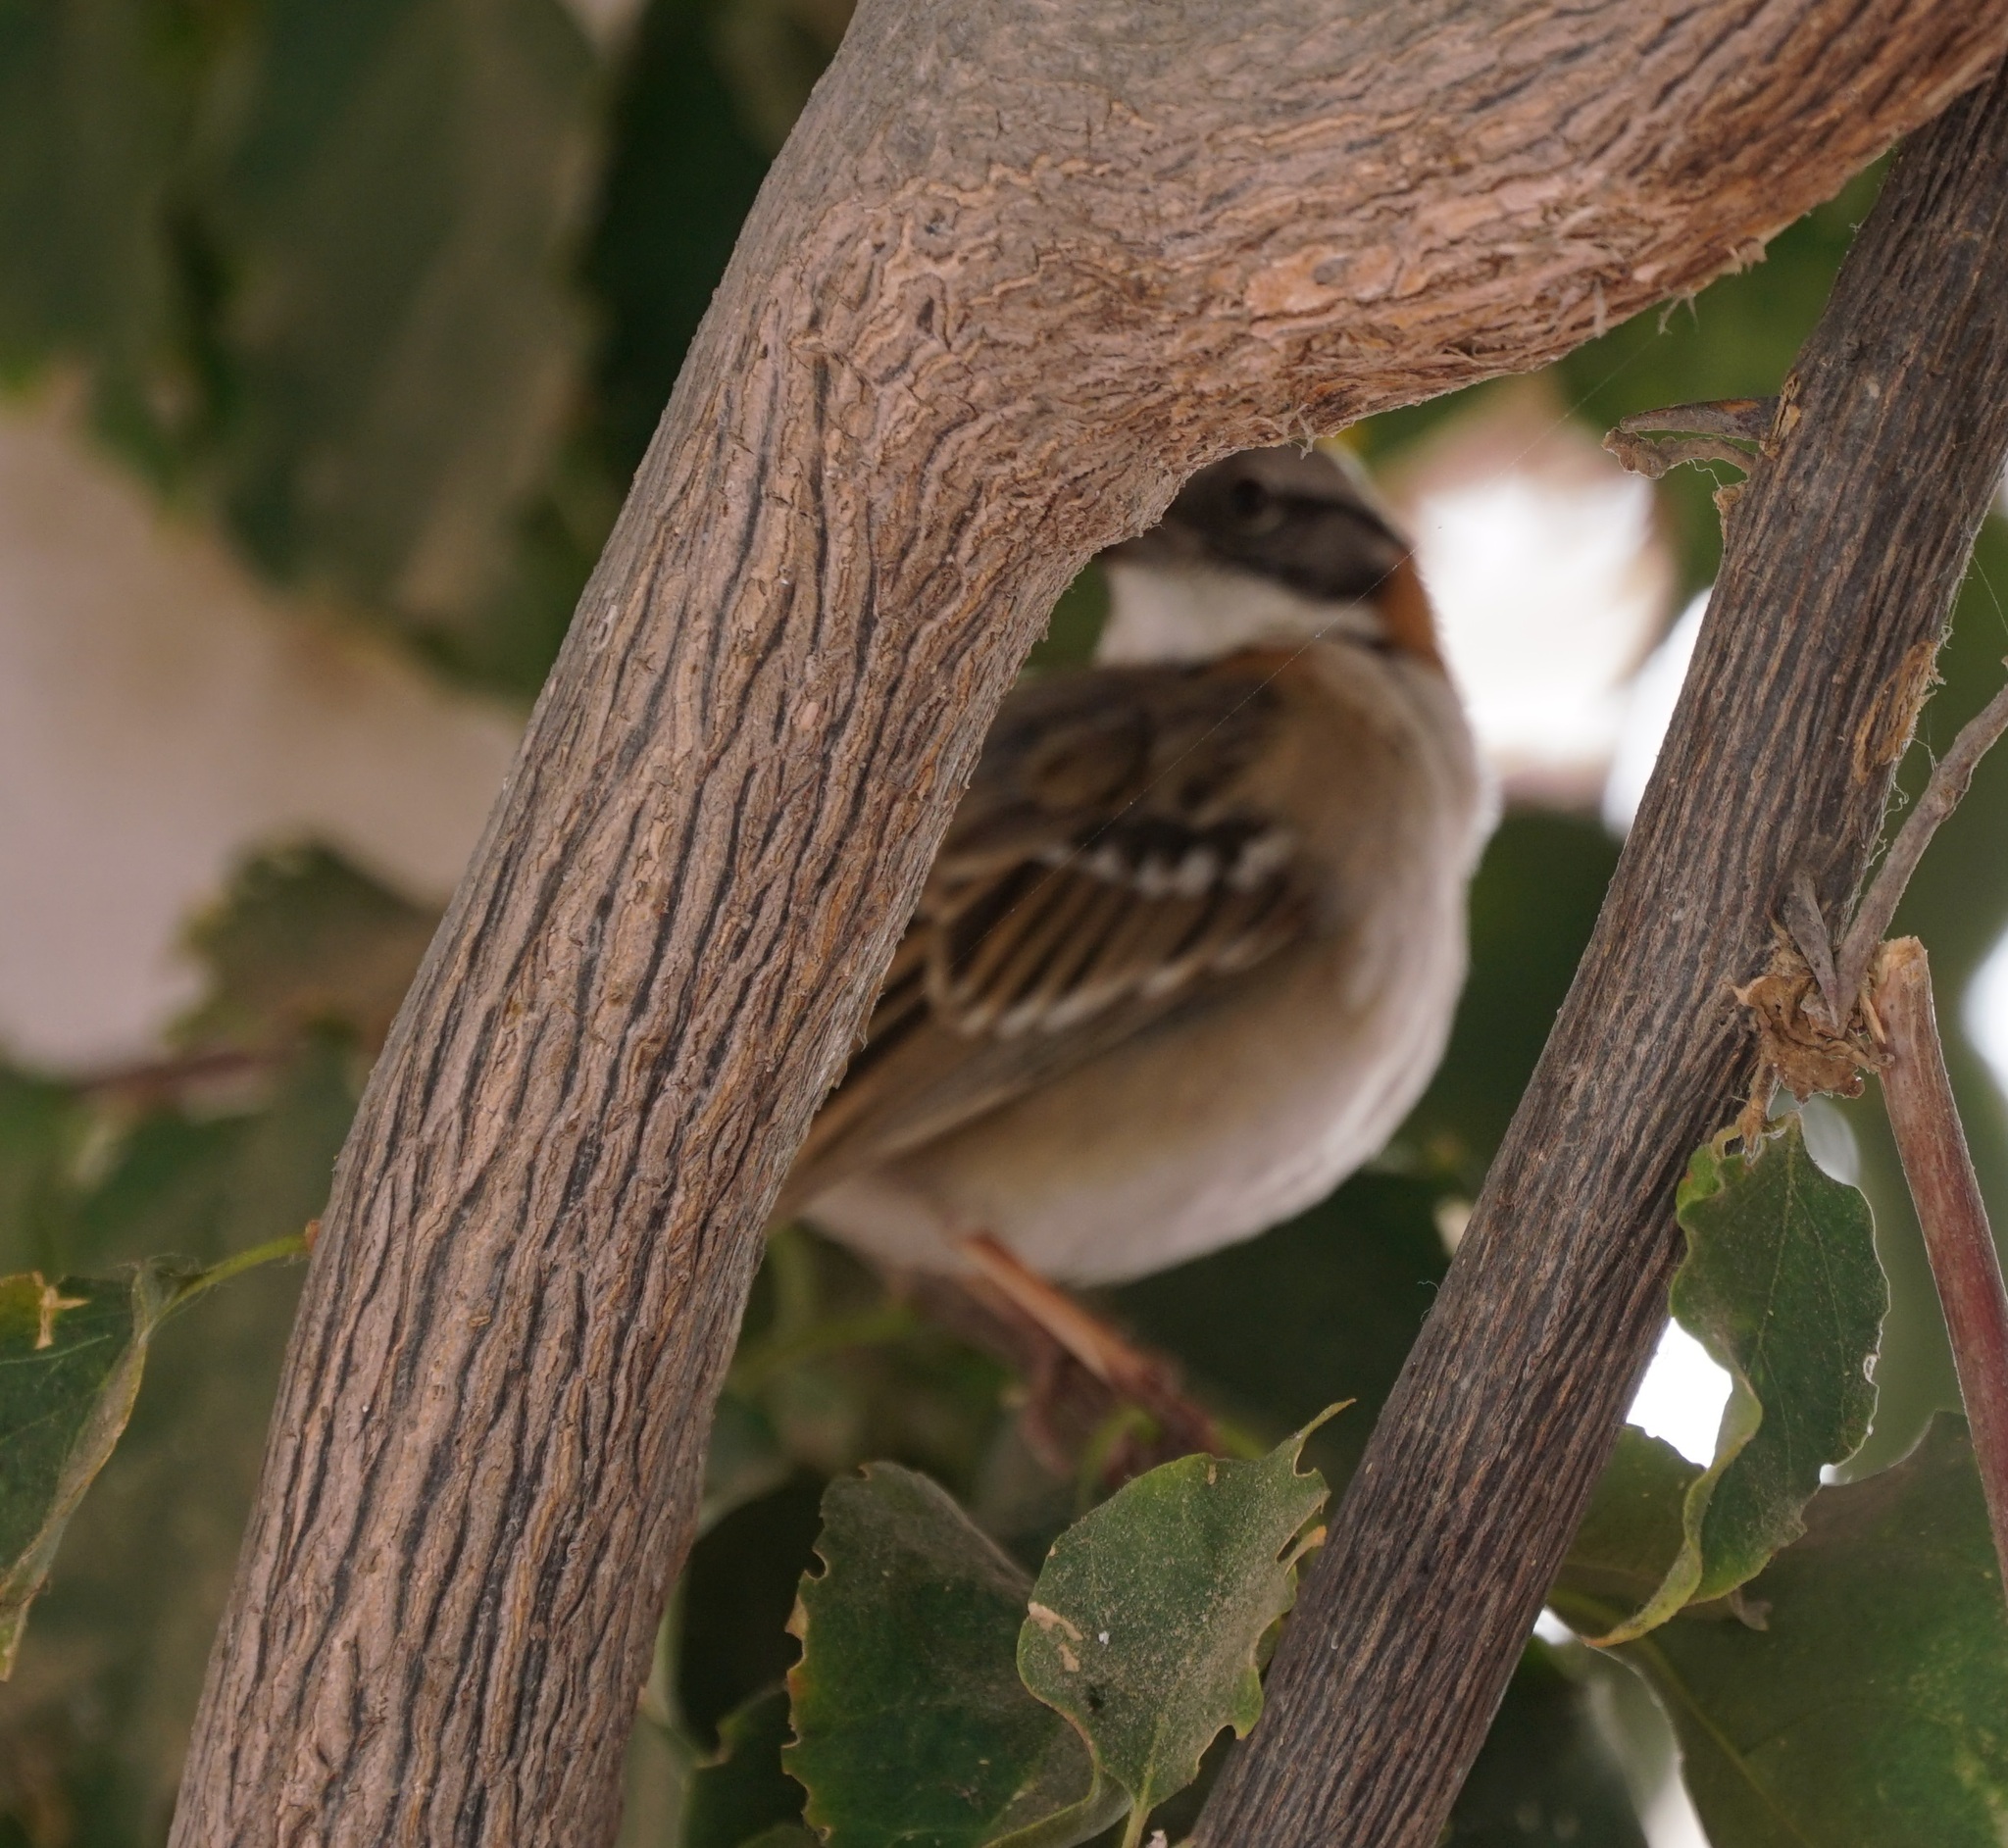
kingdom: Animalia
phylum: Chordata
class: Aves
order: Passeriformes
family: Passerellidae
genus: Zonotrichia
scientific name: Zonotrichia capensis
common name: Rufous-collared sparrow
